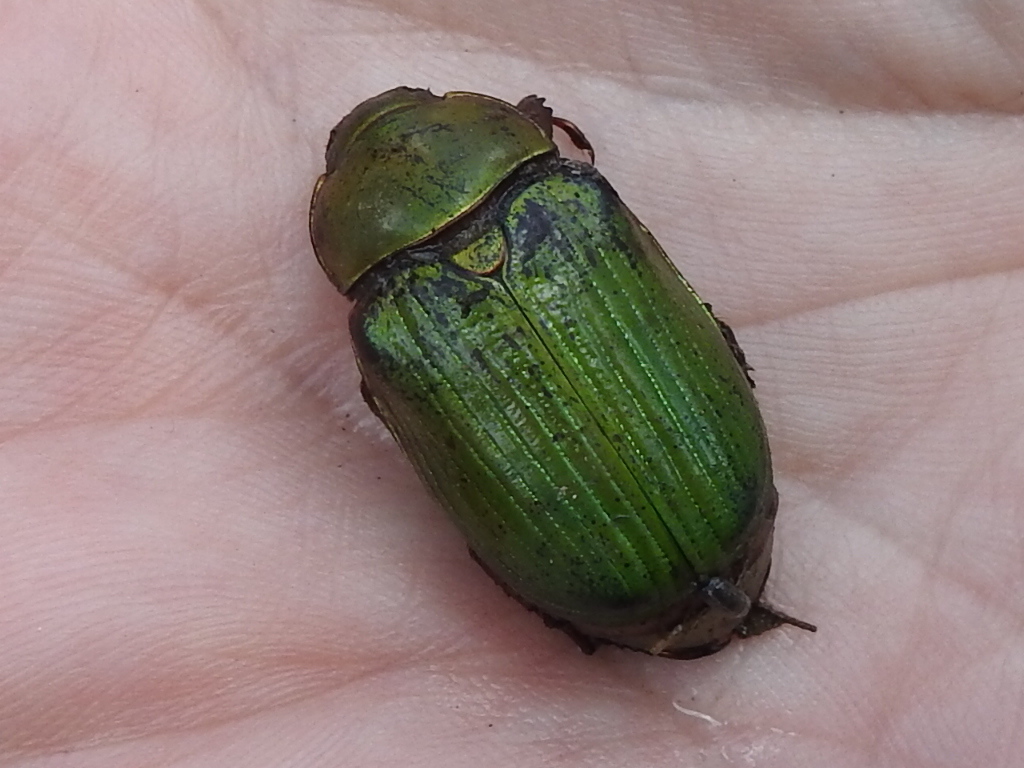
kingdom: Animalia
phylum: Arthropoda
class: Insecta
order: Coleoptera
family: Scarabaeidae
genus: Chrysina
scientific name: Chrysina lecontei
